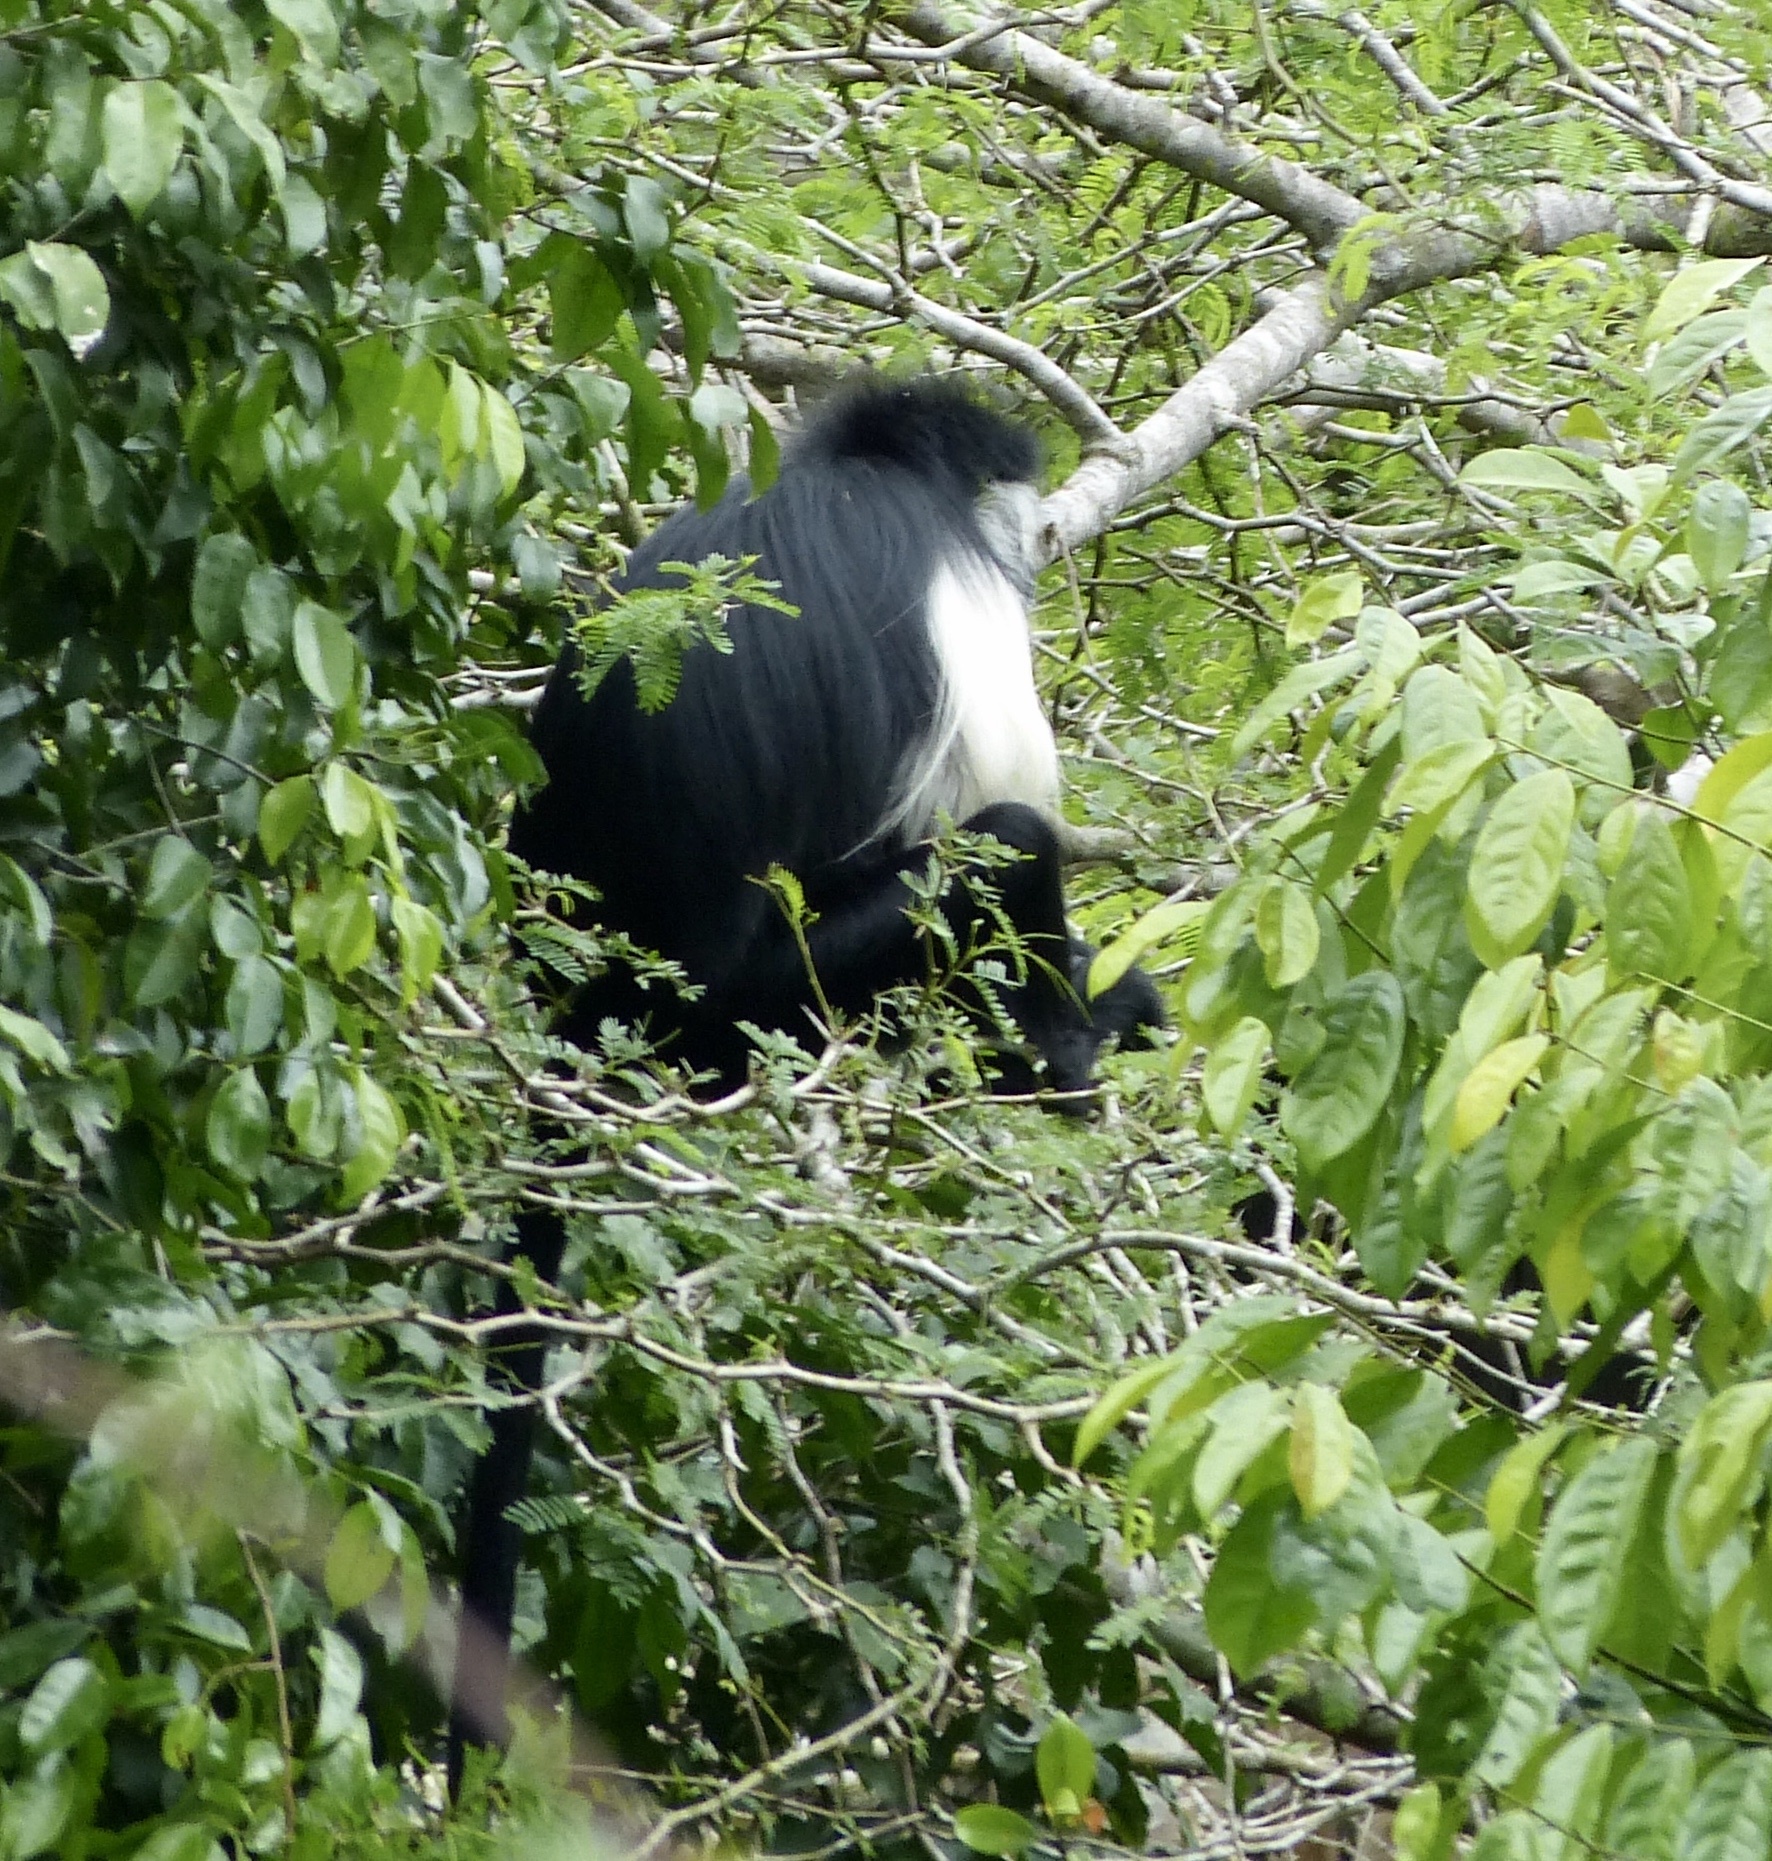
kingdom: Animalia
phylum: Chordata
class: Mammalia
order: Primates
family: Cercopithecidae
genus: Colobus
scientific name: Colobus angolensis
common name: Angola colobus
